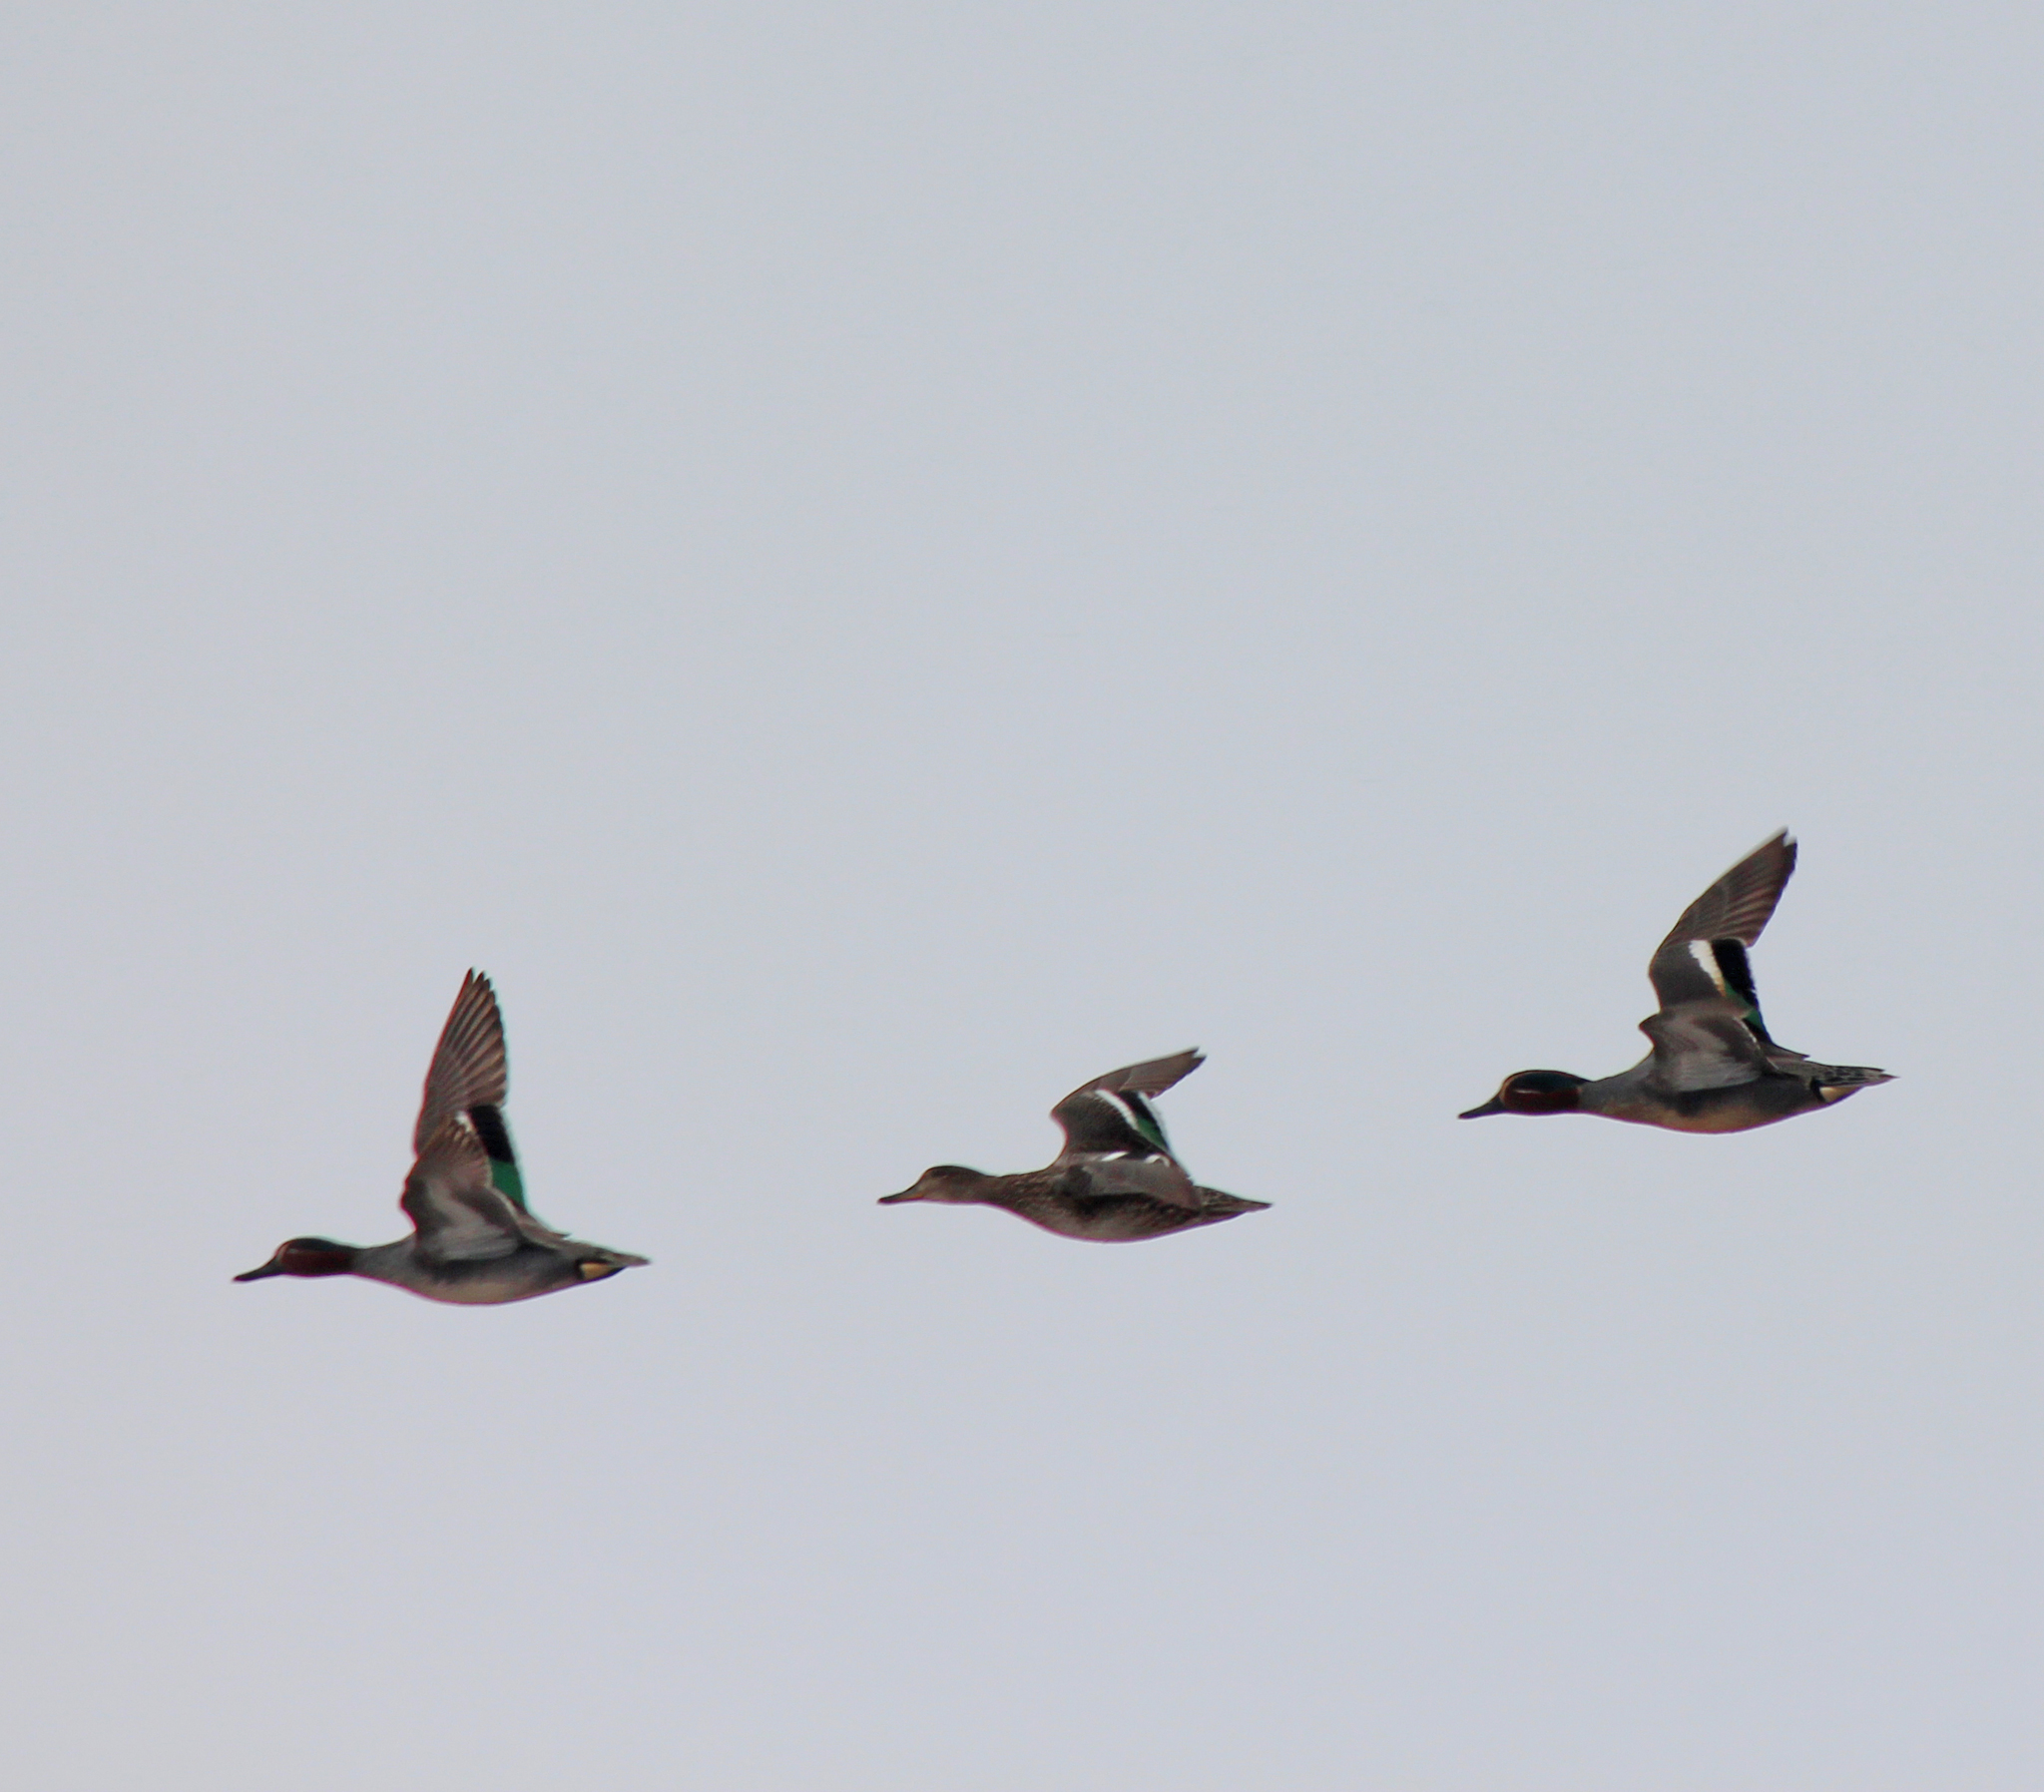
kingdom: Animalia
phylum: Chordata
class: Aves
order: Anseriformes
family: Anatidae
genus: Anas
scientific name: Anas crecca
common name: Eurasian teal
